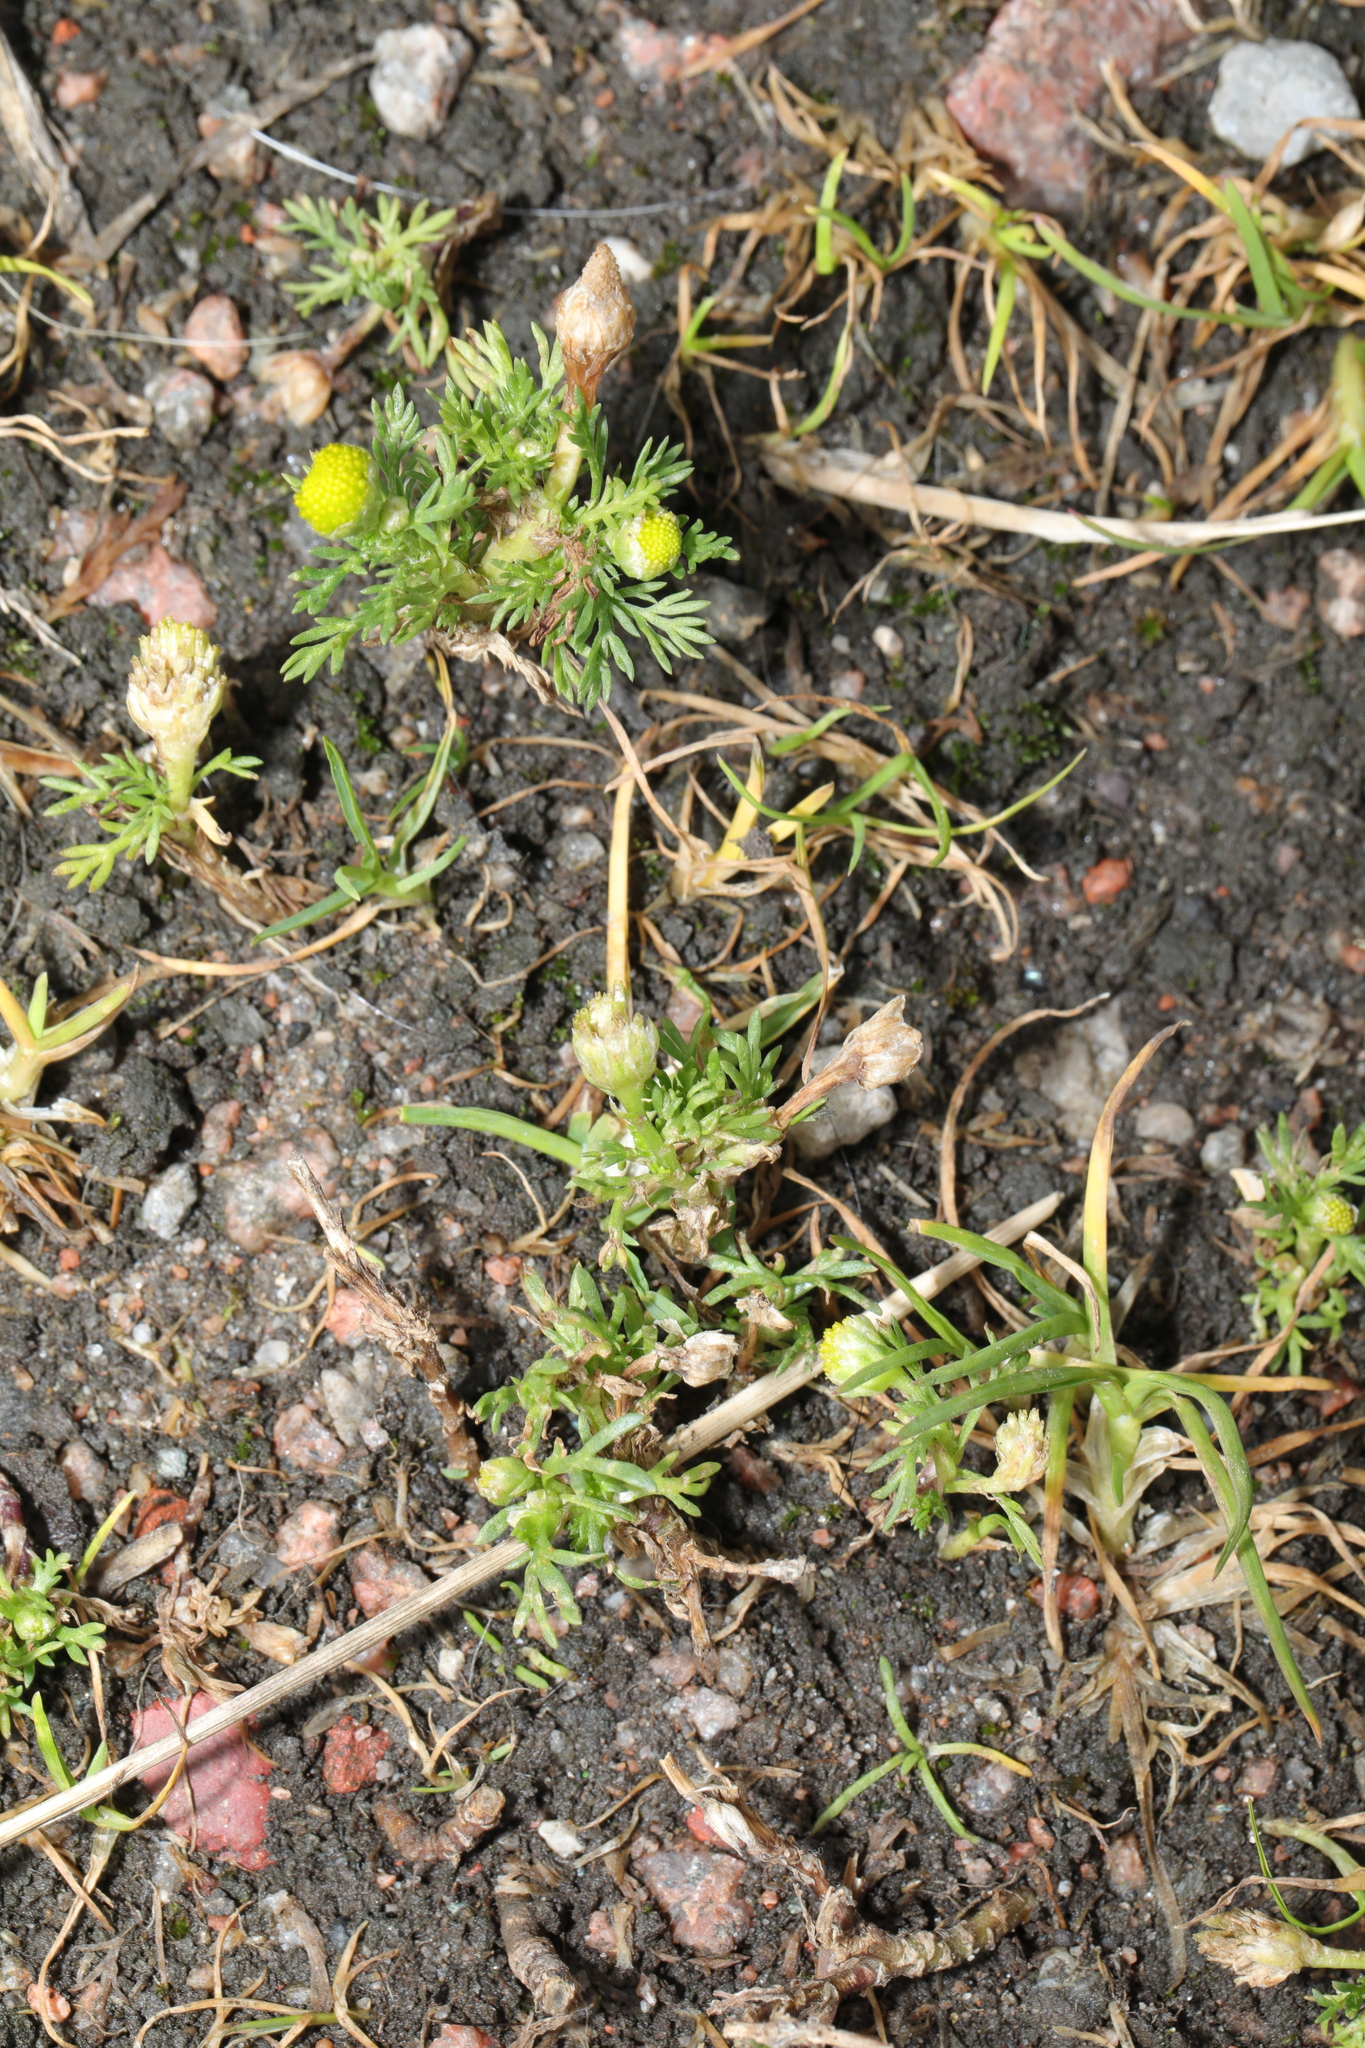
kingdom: Plantae
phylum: Tracheophyta
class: Magnoliopsida
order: Asterales
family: Asteraceae
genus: Matricaria
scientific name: Matricaria discoidea
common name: Disc mayweed
